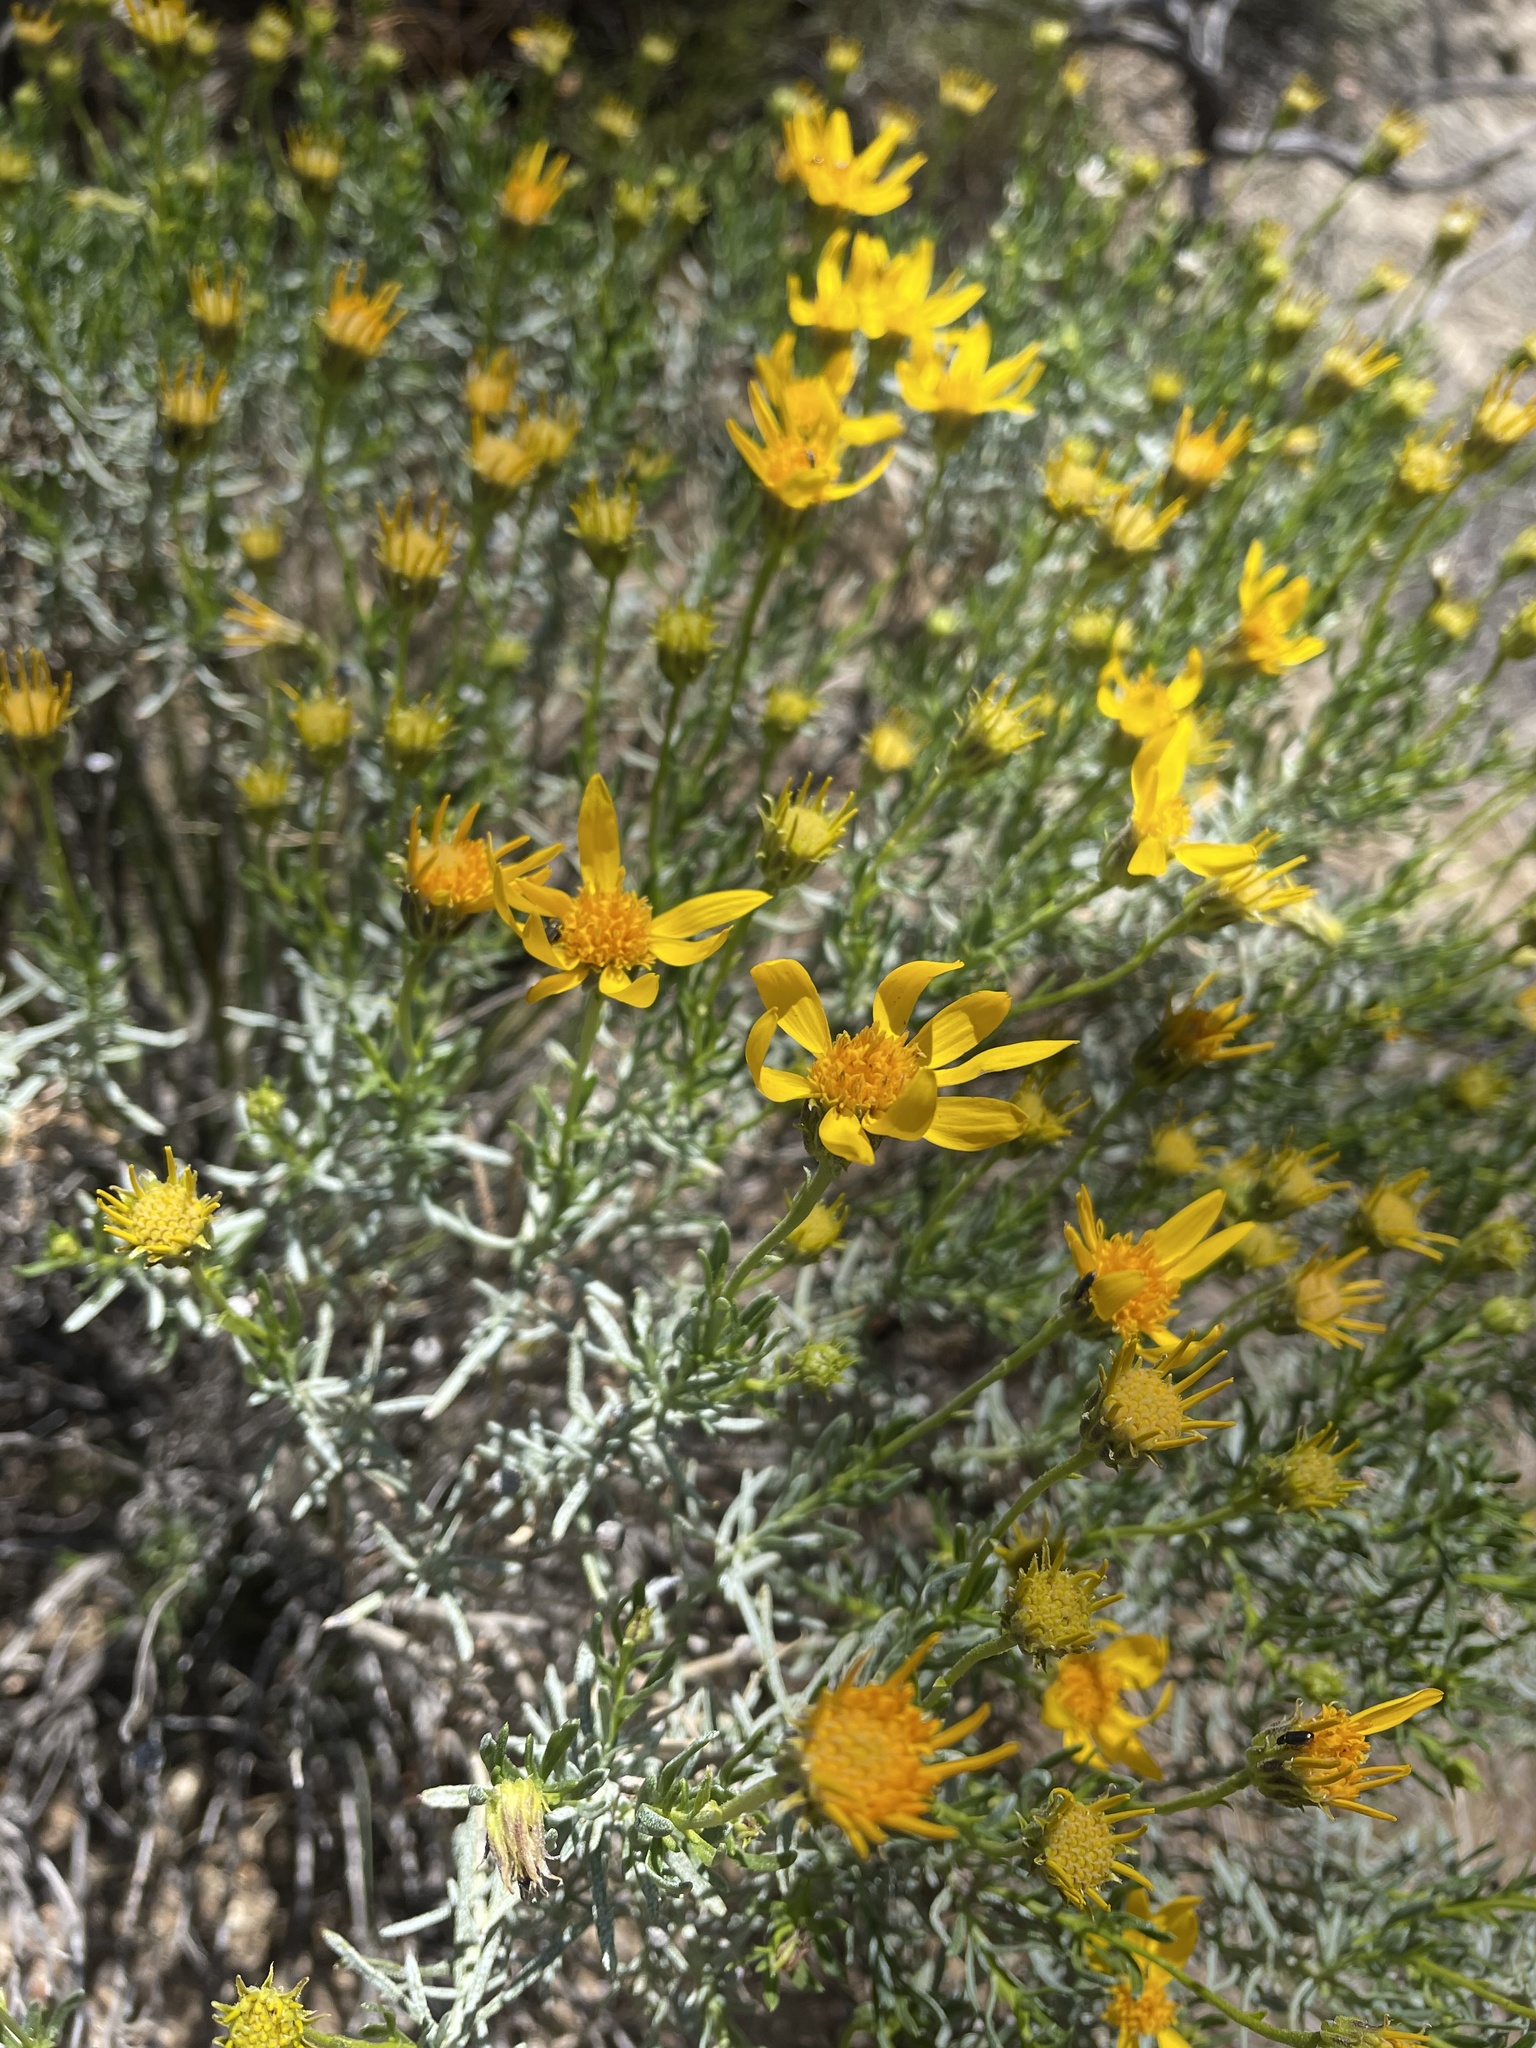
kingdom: Plantae
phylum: Tracheophyta
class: Magnoliopsida
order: Asterales
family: Asteraceae
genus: Ericameria
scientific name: Ericameria linearifolia
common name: Interior goldenbush
